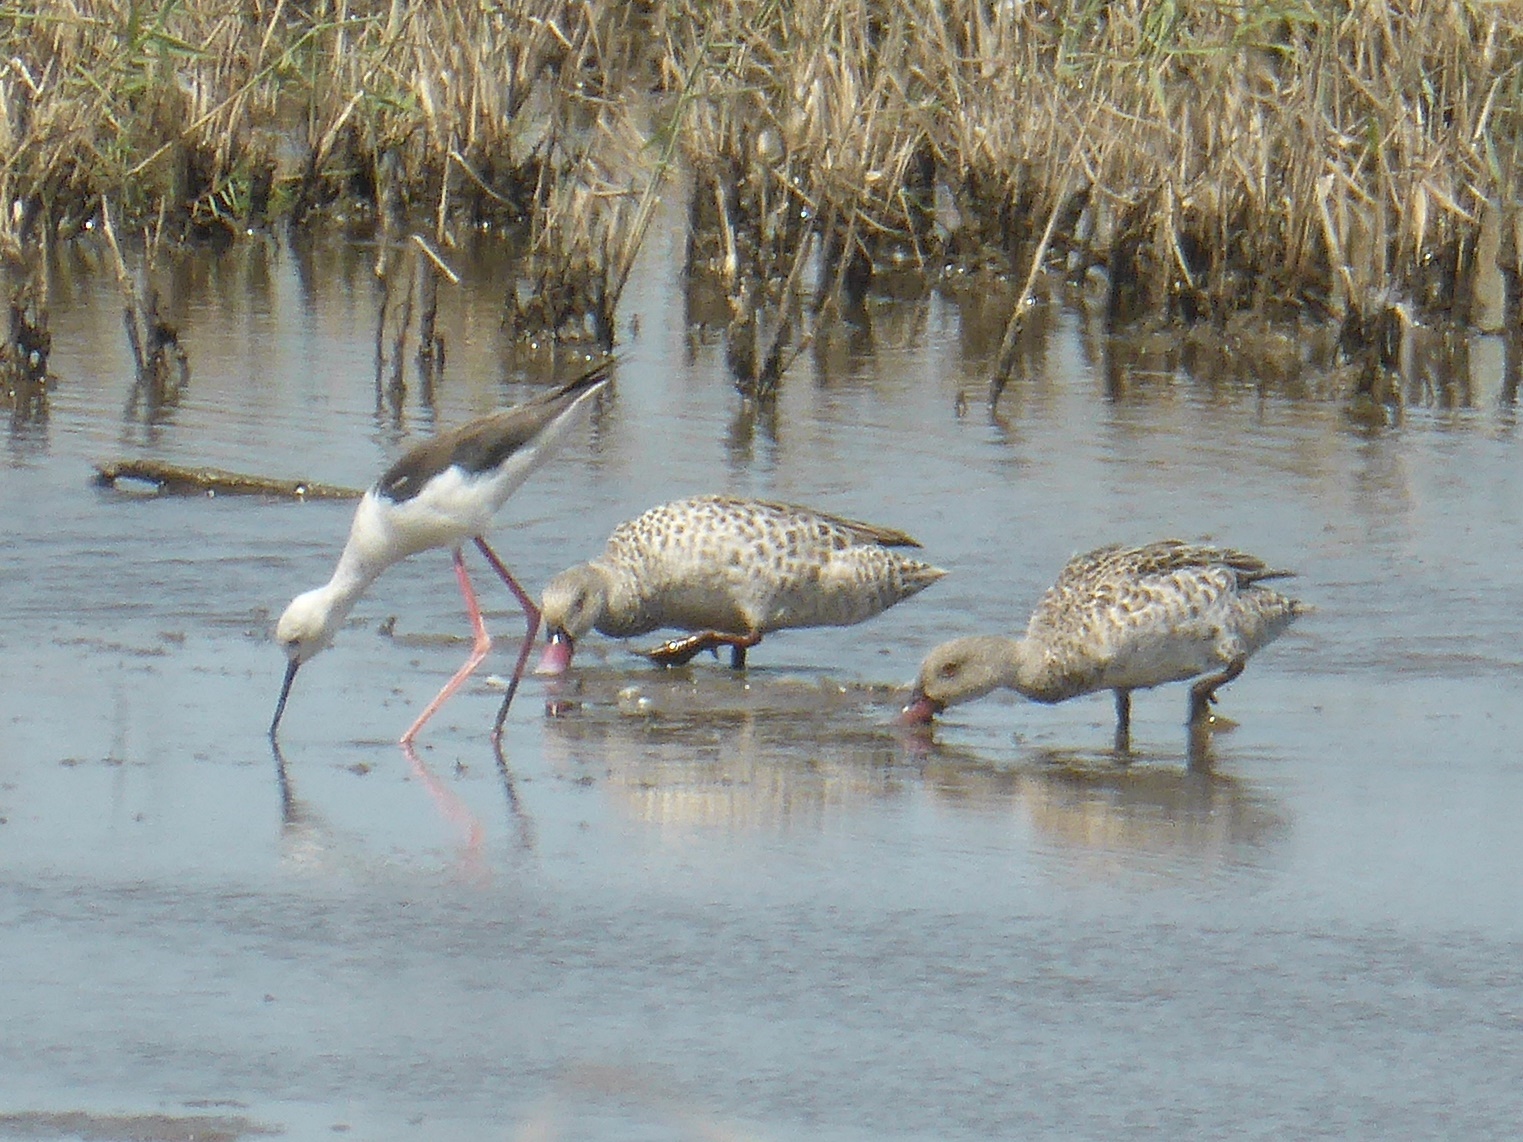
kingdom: Animalia
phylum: Chordata
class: Aves
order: Anseriformes
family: Anatidae
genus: Anas
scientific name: Anas capensis
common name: Cape teal
